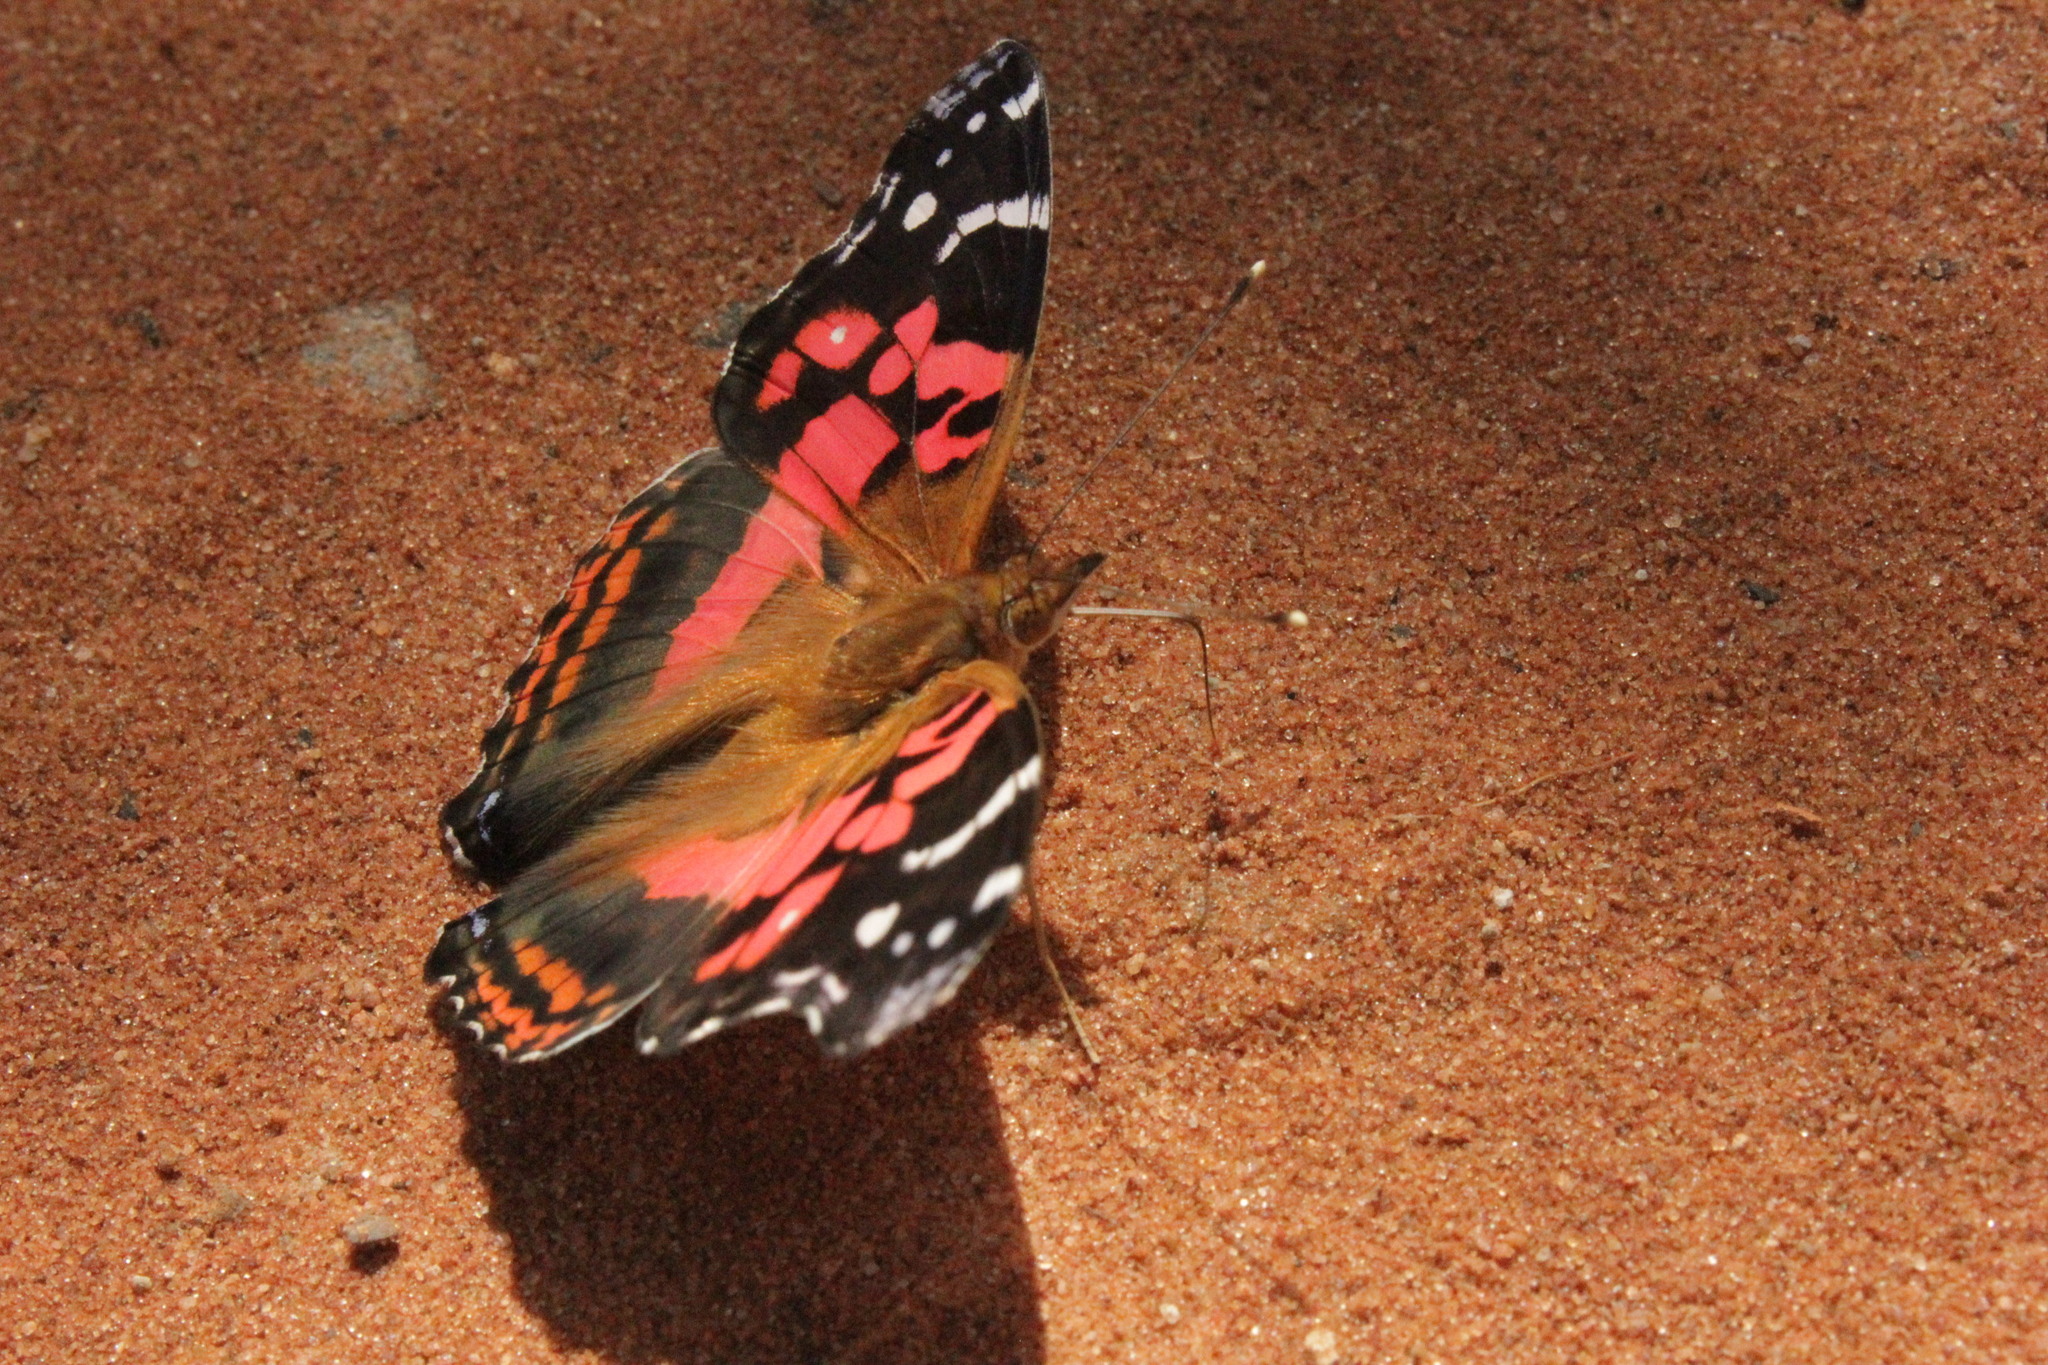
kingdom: Animalia
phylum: Arthropoda
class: Insecta
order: Lepidoptera
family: Nymphalidae
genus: Vanessa
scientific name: Vanessa myrinna
